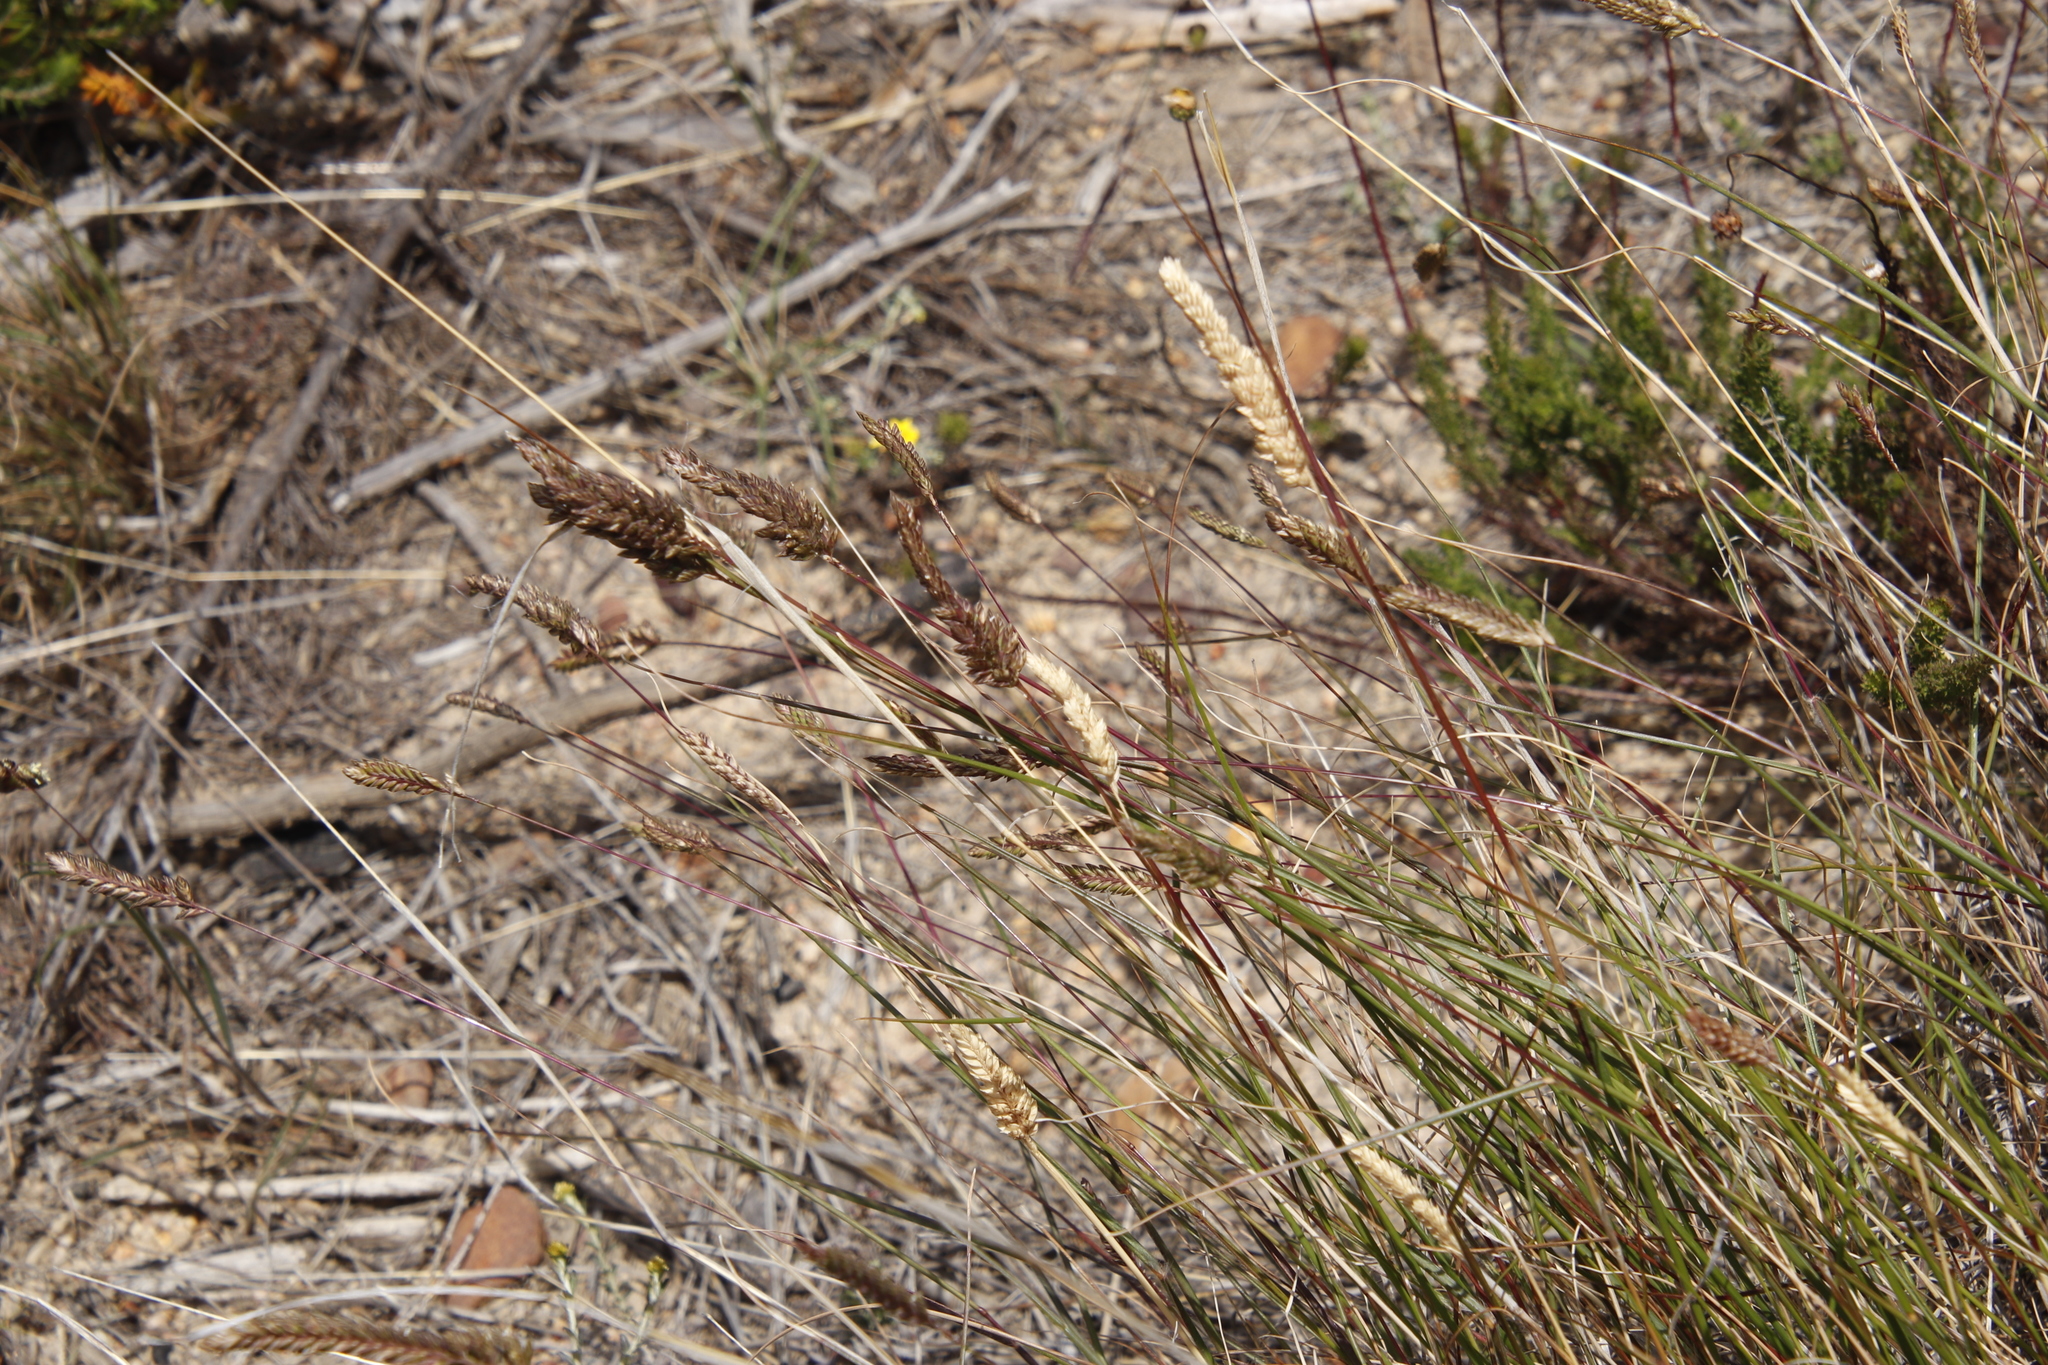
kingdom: Plantae
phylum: Tracheophyta
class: Liliopsida
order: Poales
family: Poaceae
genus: Tribolium
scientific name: Tribolium uniolae
